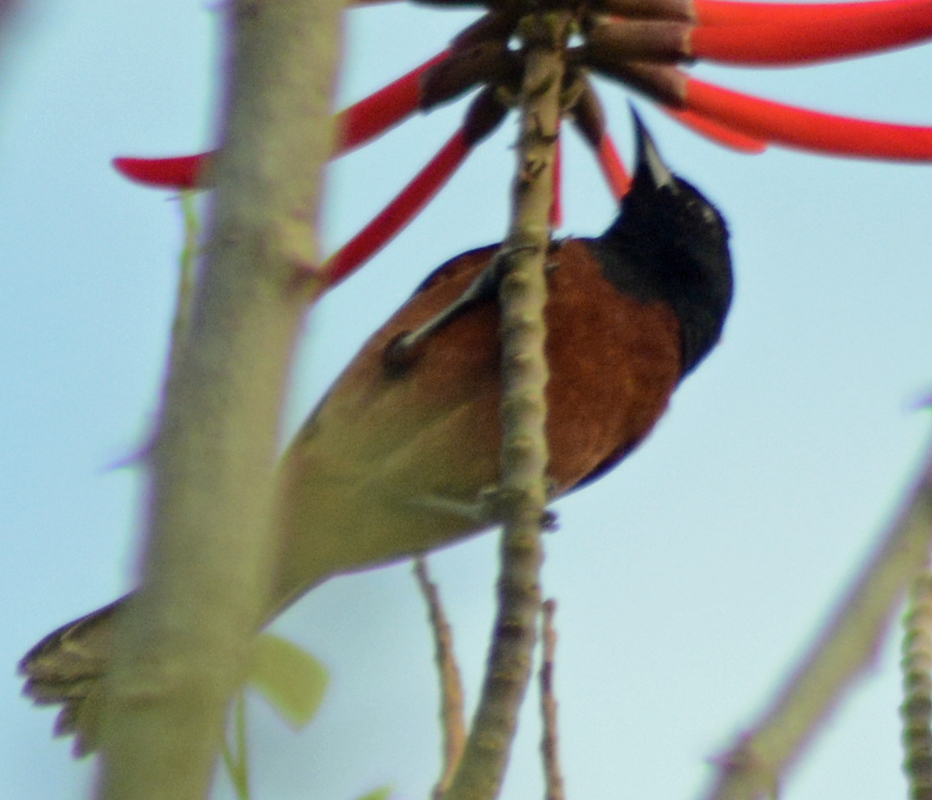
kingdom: Animalia
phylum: Chordata
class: Aves
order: Passeriformes
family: Icteridae
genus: Icterus
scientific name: Icterus spurius
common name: Orchard oriole
